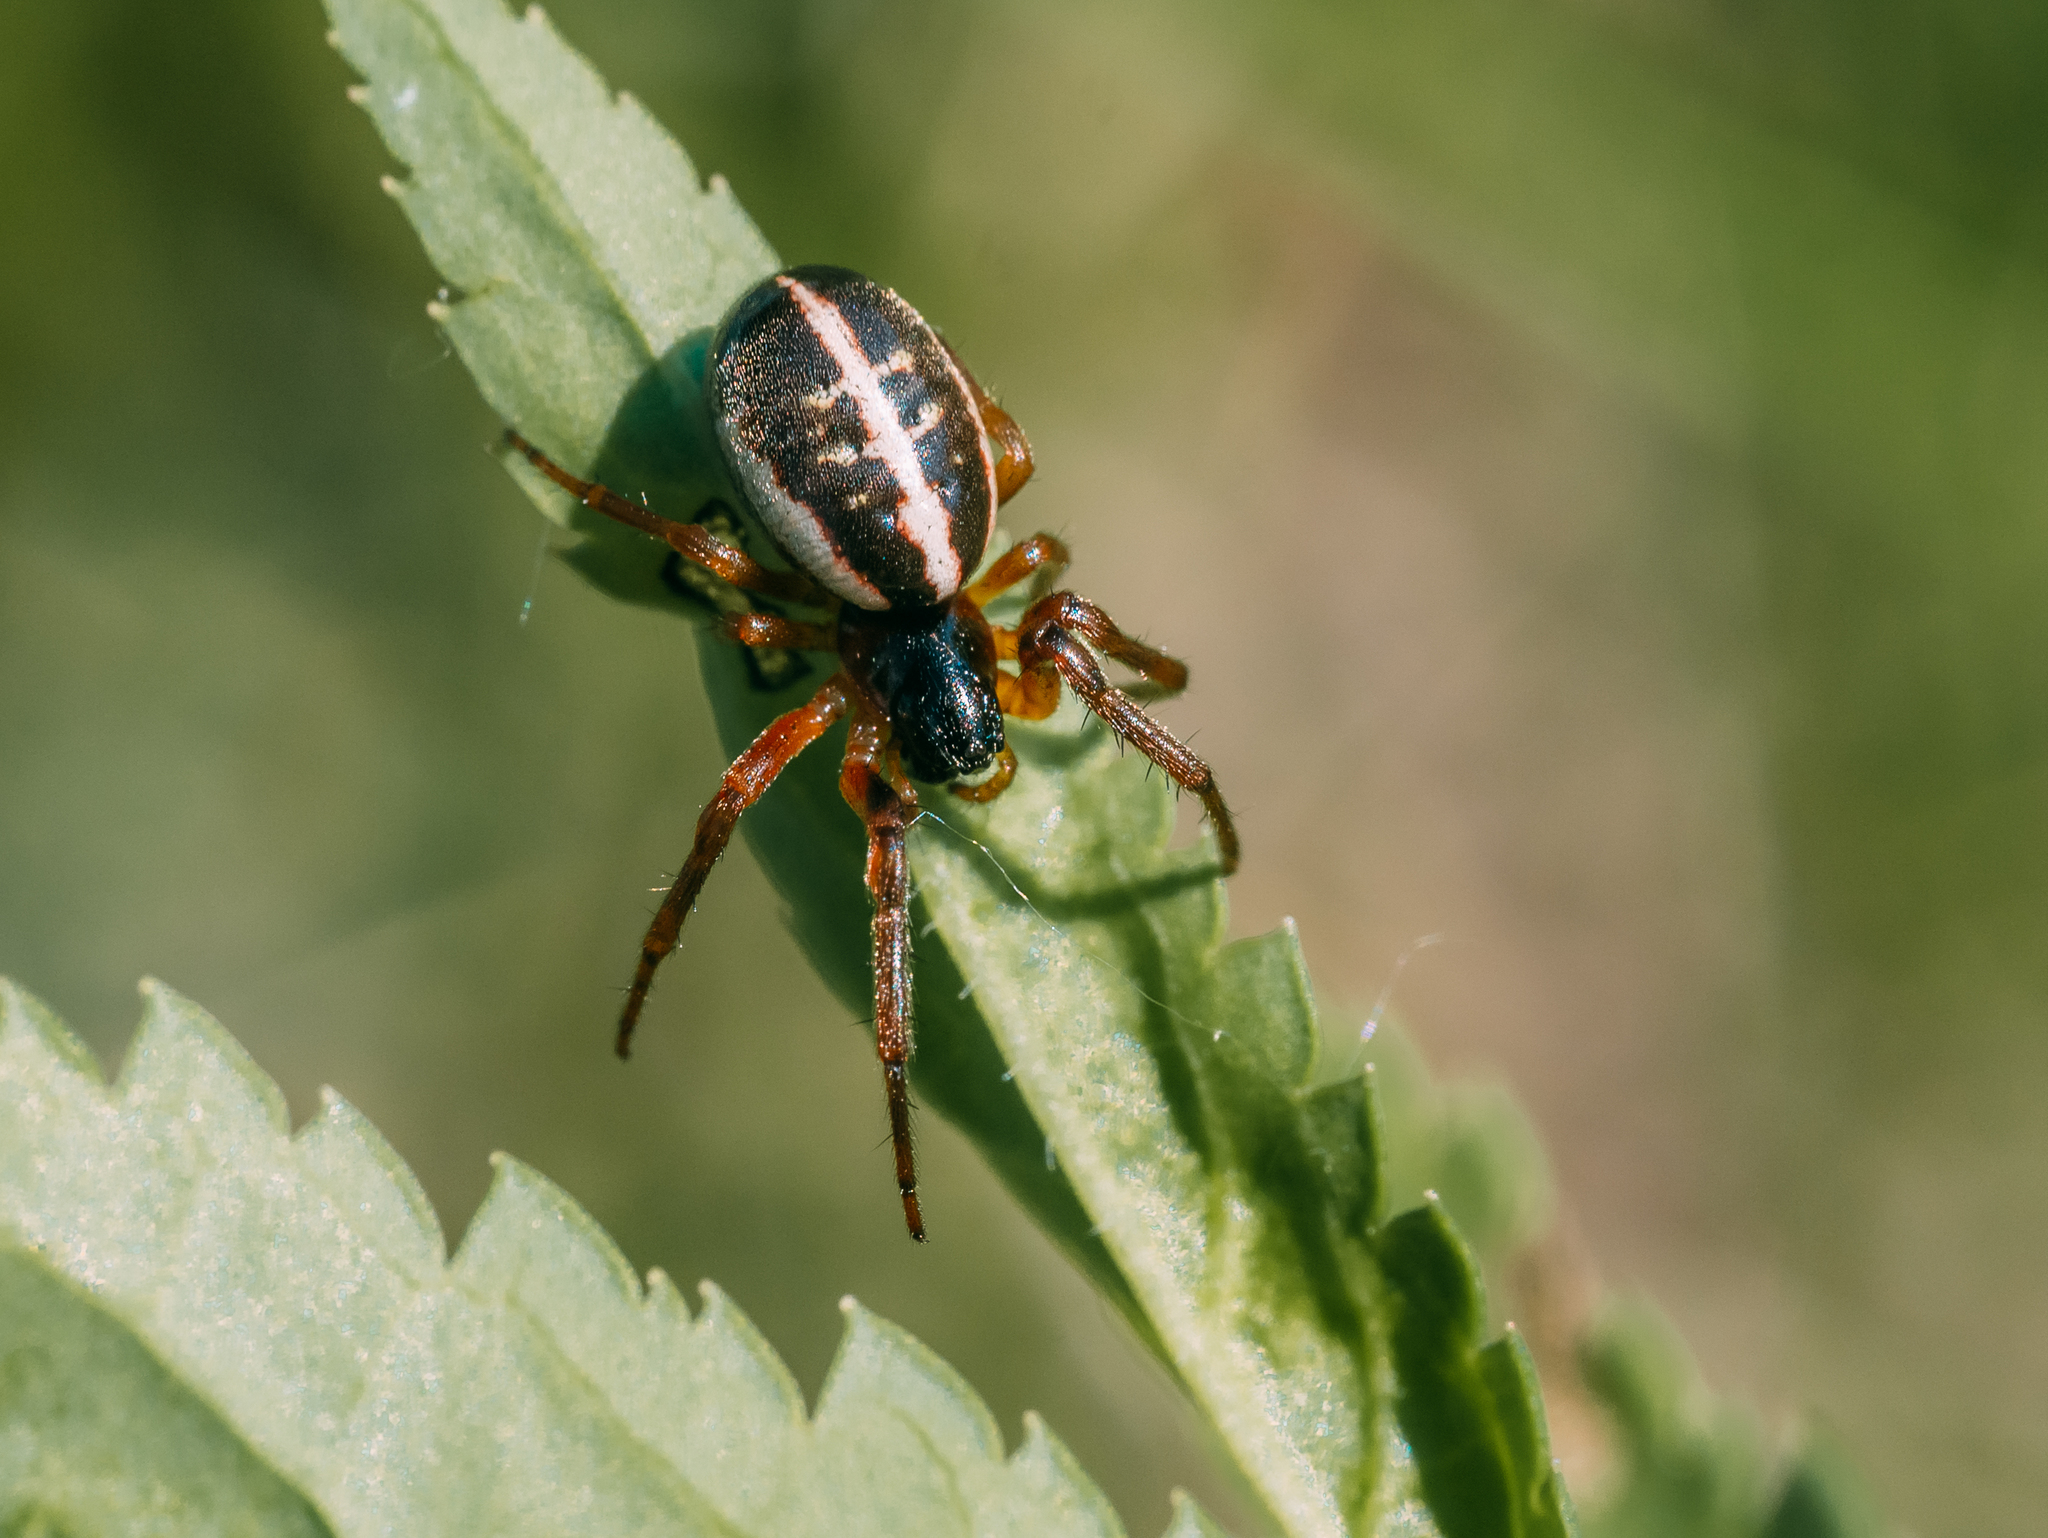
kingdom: Animalia
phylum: Arthropoda
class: Arachnida
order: Araneae
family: Araneidae
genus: Singa
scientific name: Singa nitidula
